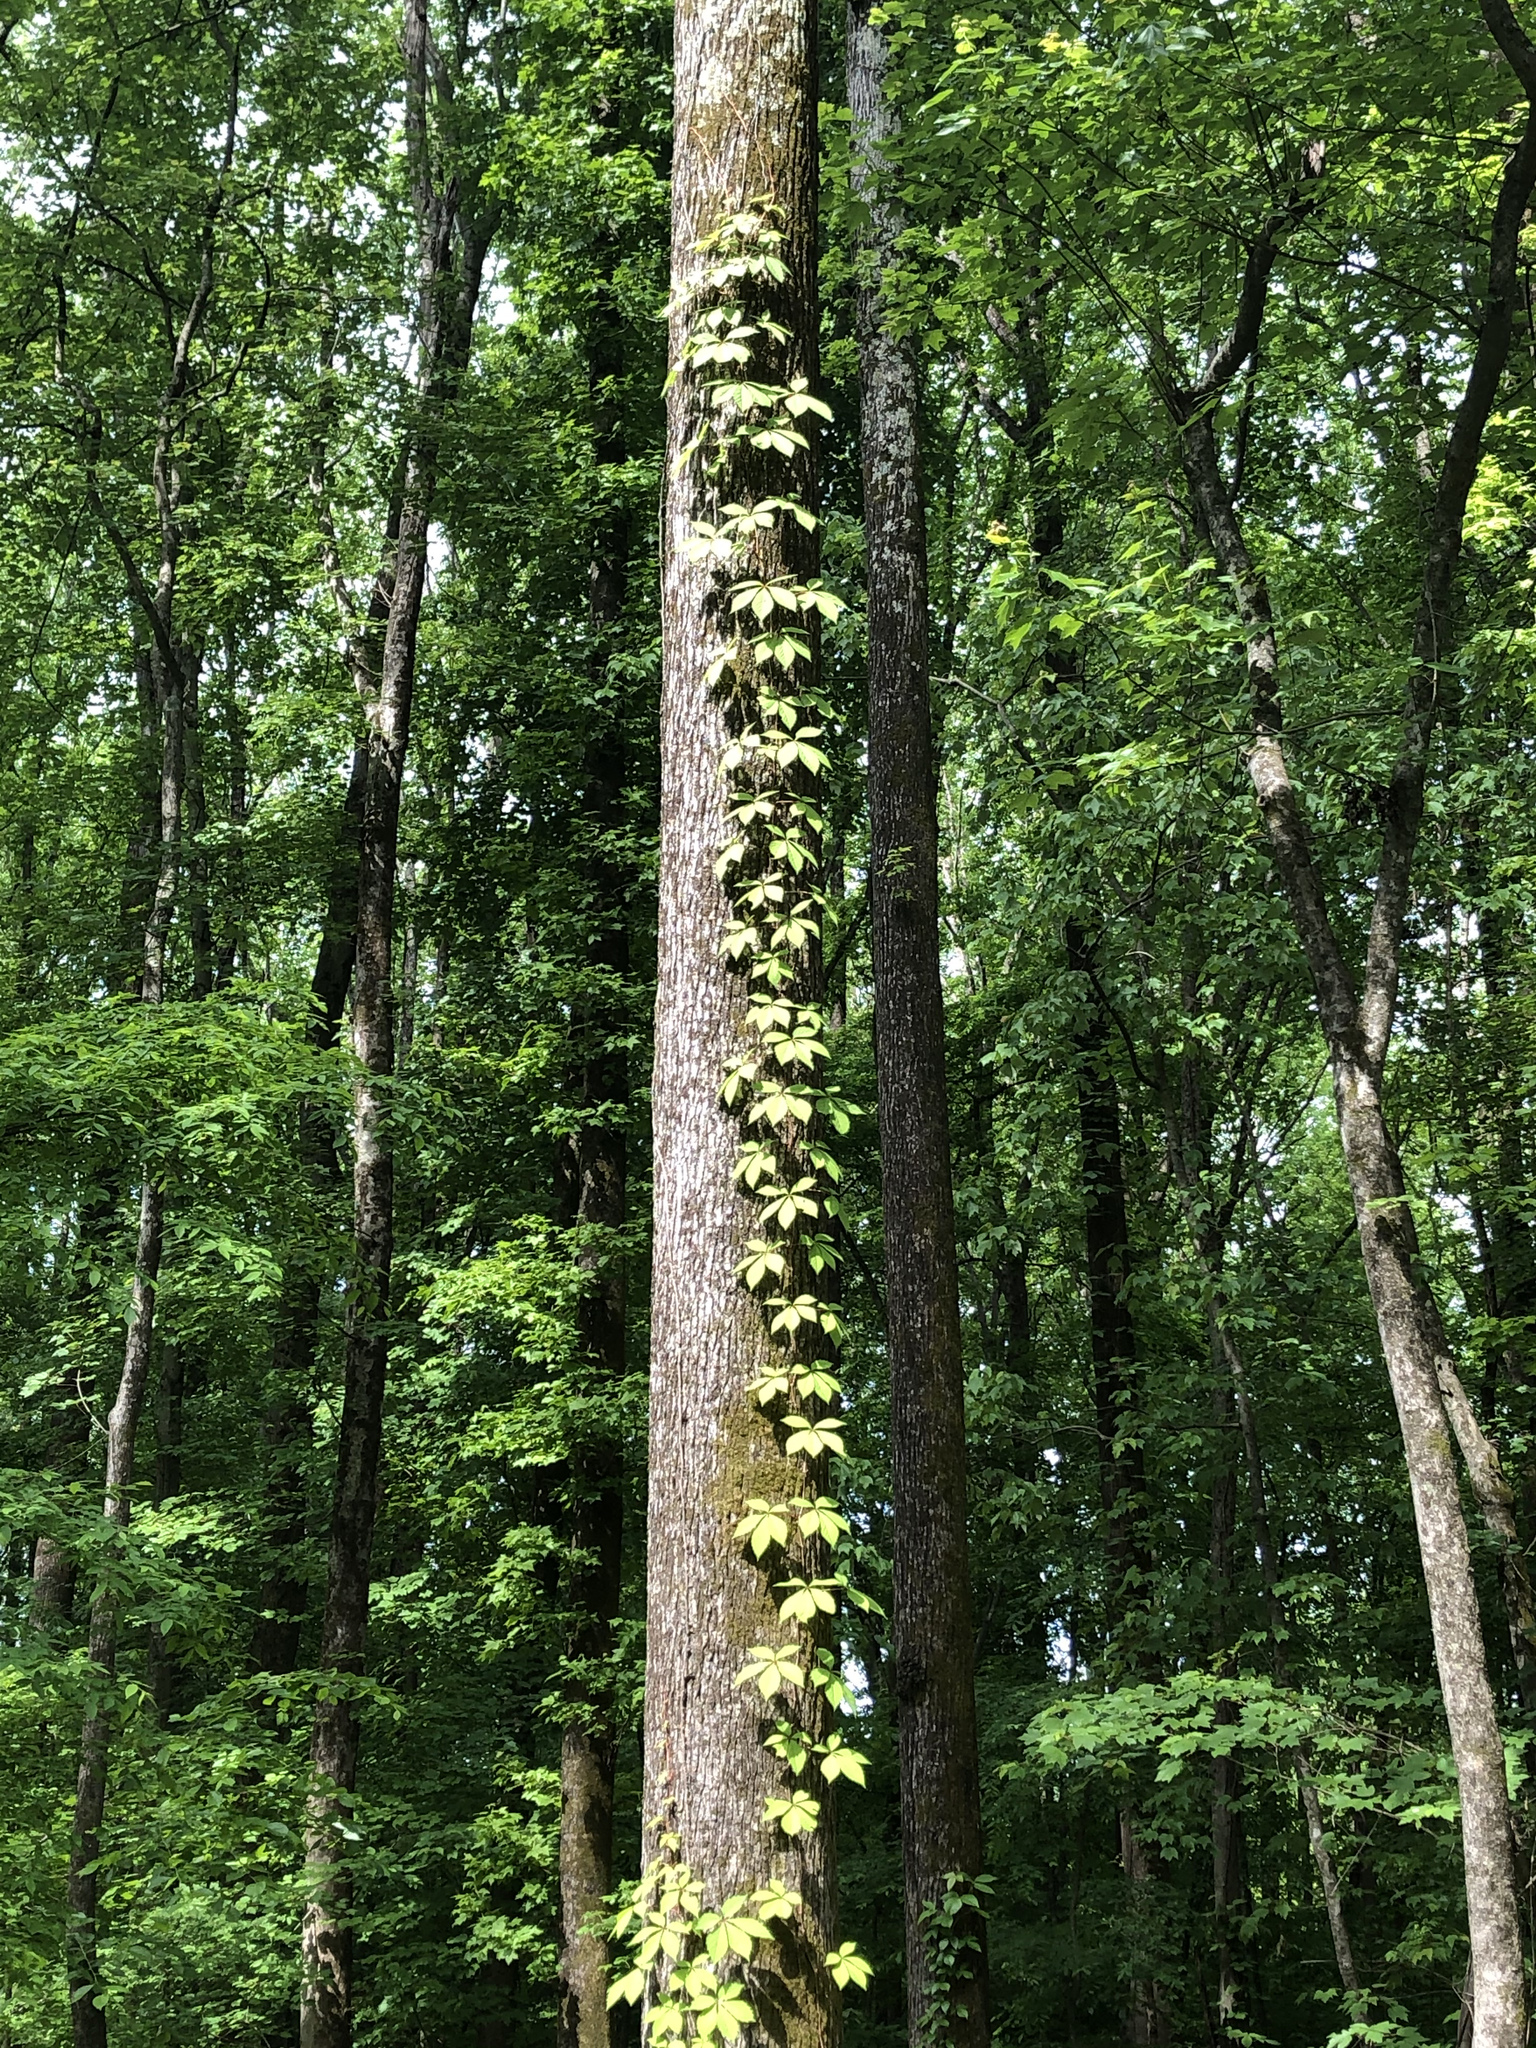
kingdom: Plantae
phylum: Tracheophyta
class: Magnoliopsida
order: Vitales
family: Vitaceae
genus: Parthenocissus
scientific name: Parthenocissus quinquefolia
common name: Virginia-creeper
